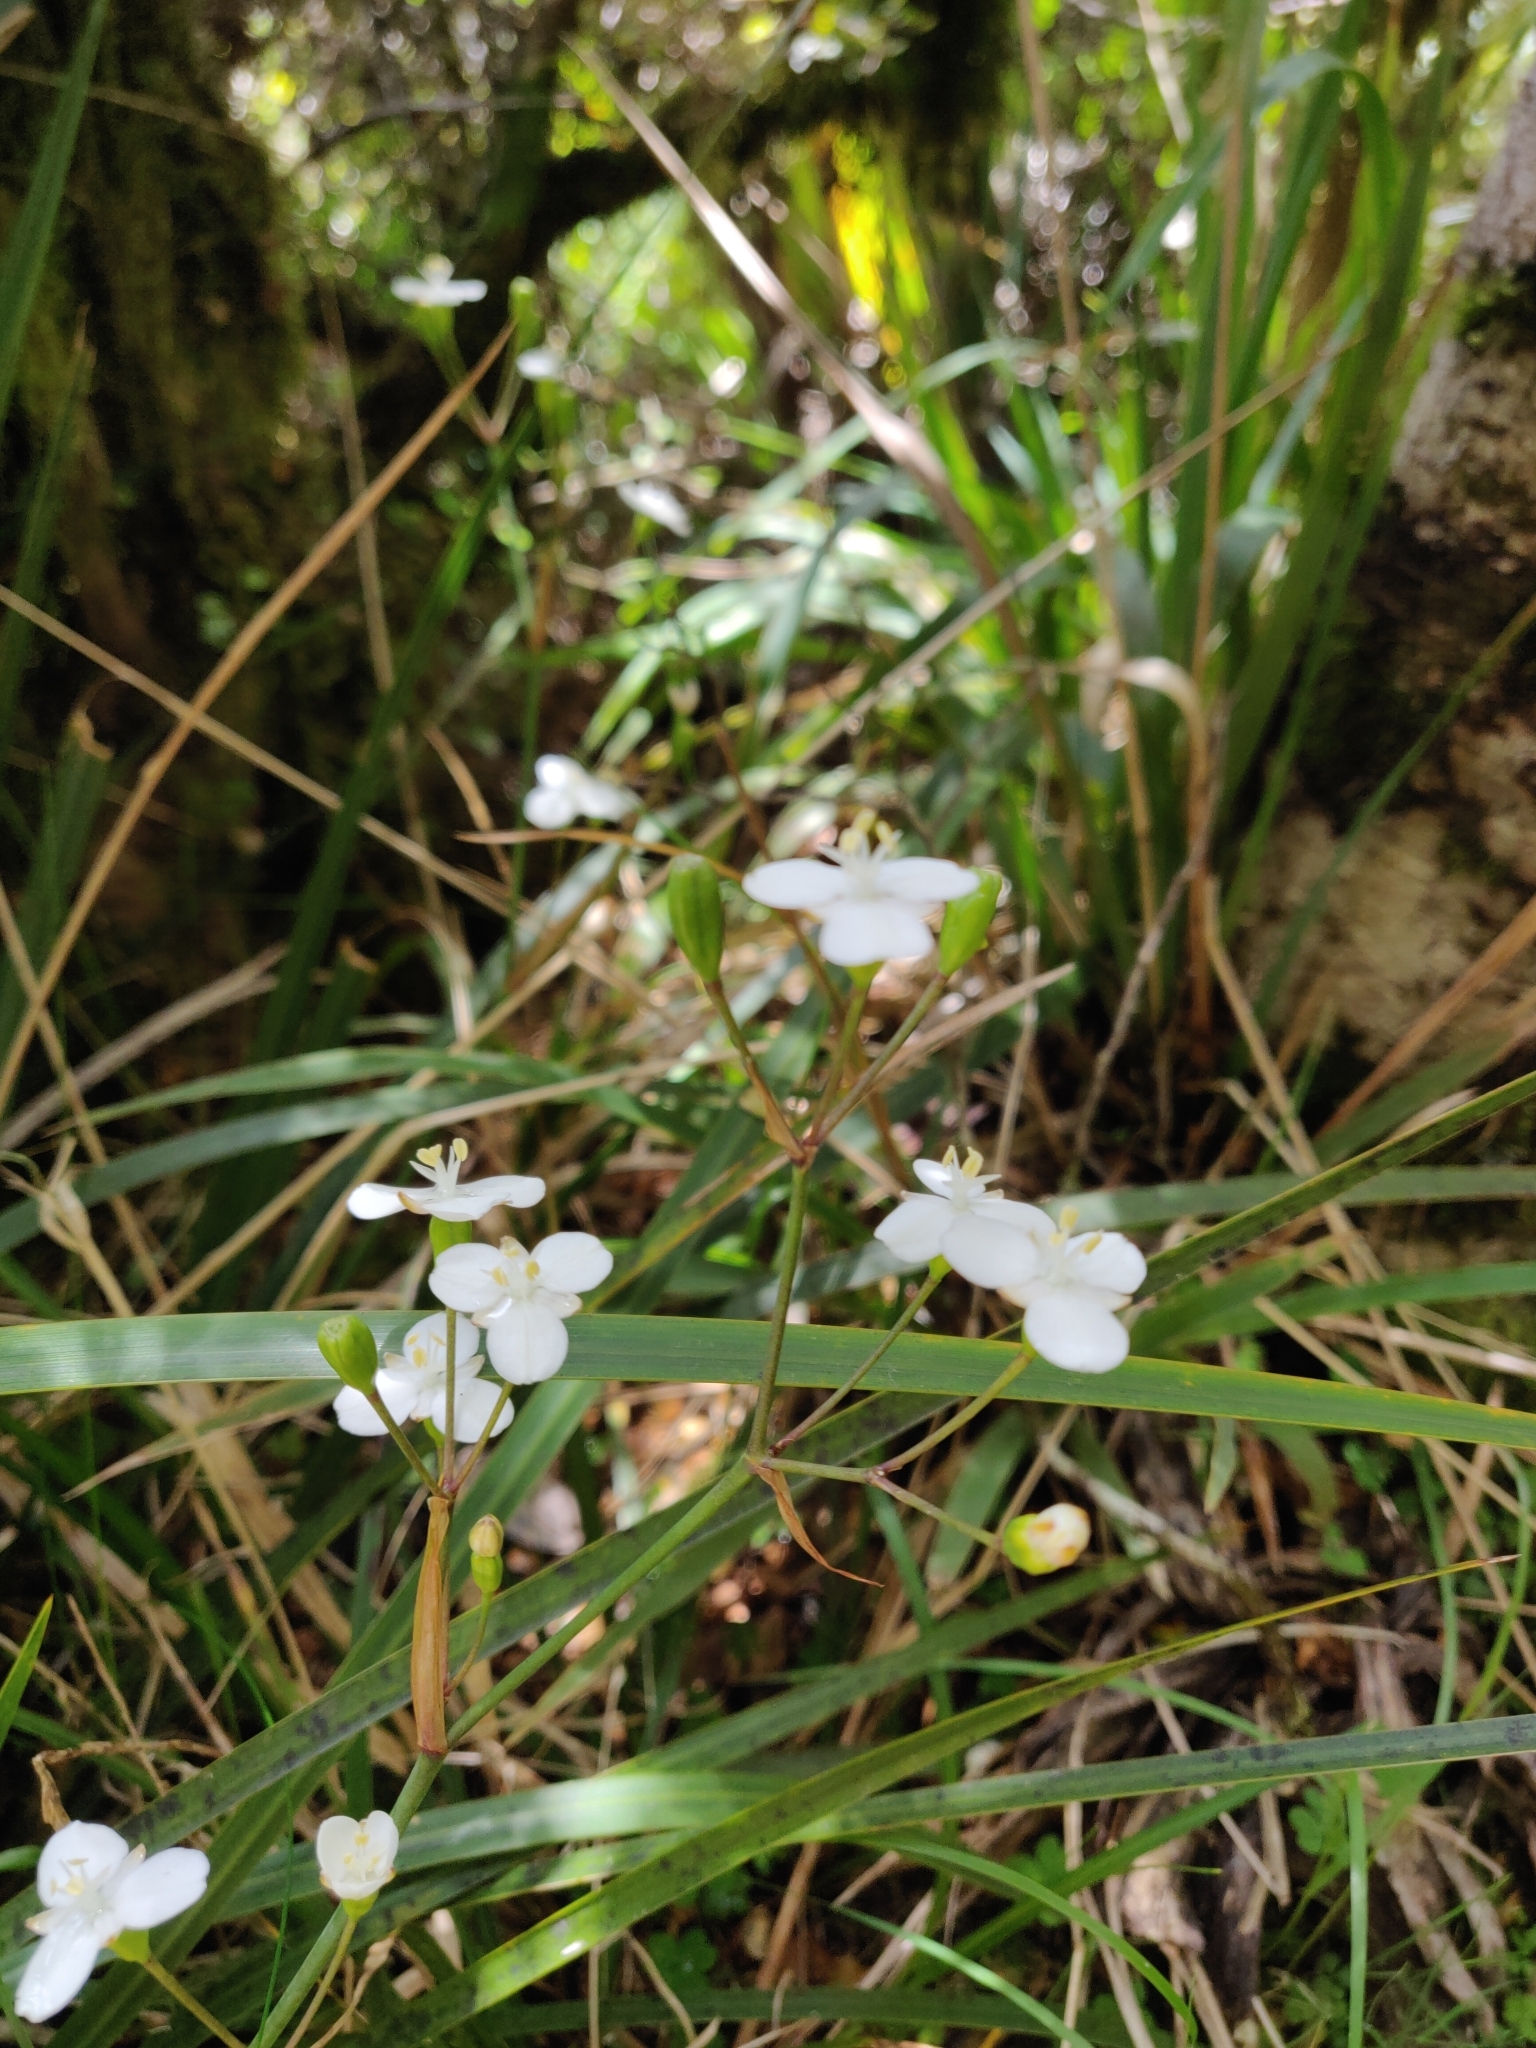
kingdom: Plantae
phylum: Tracheophyta
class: Liliopsida
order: Asparagales
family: Iridaceae
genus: Libertia
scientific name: Libertia ixioides
